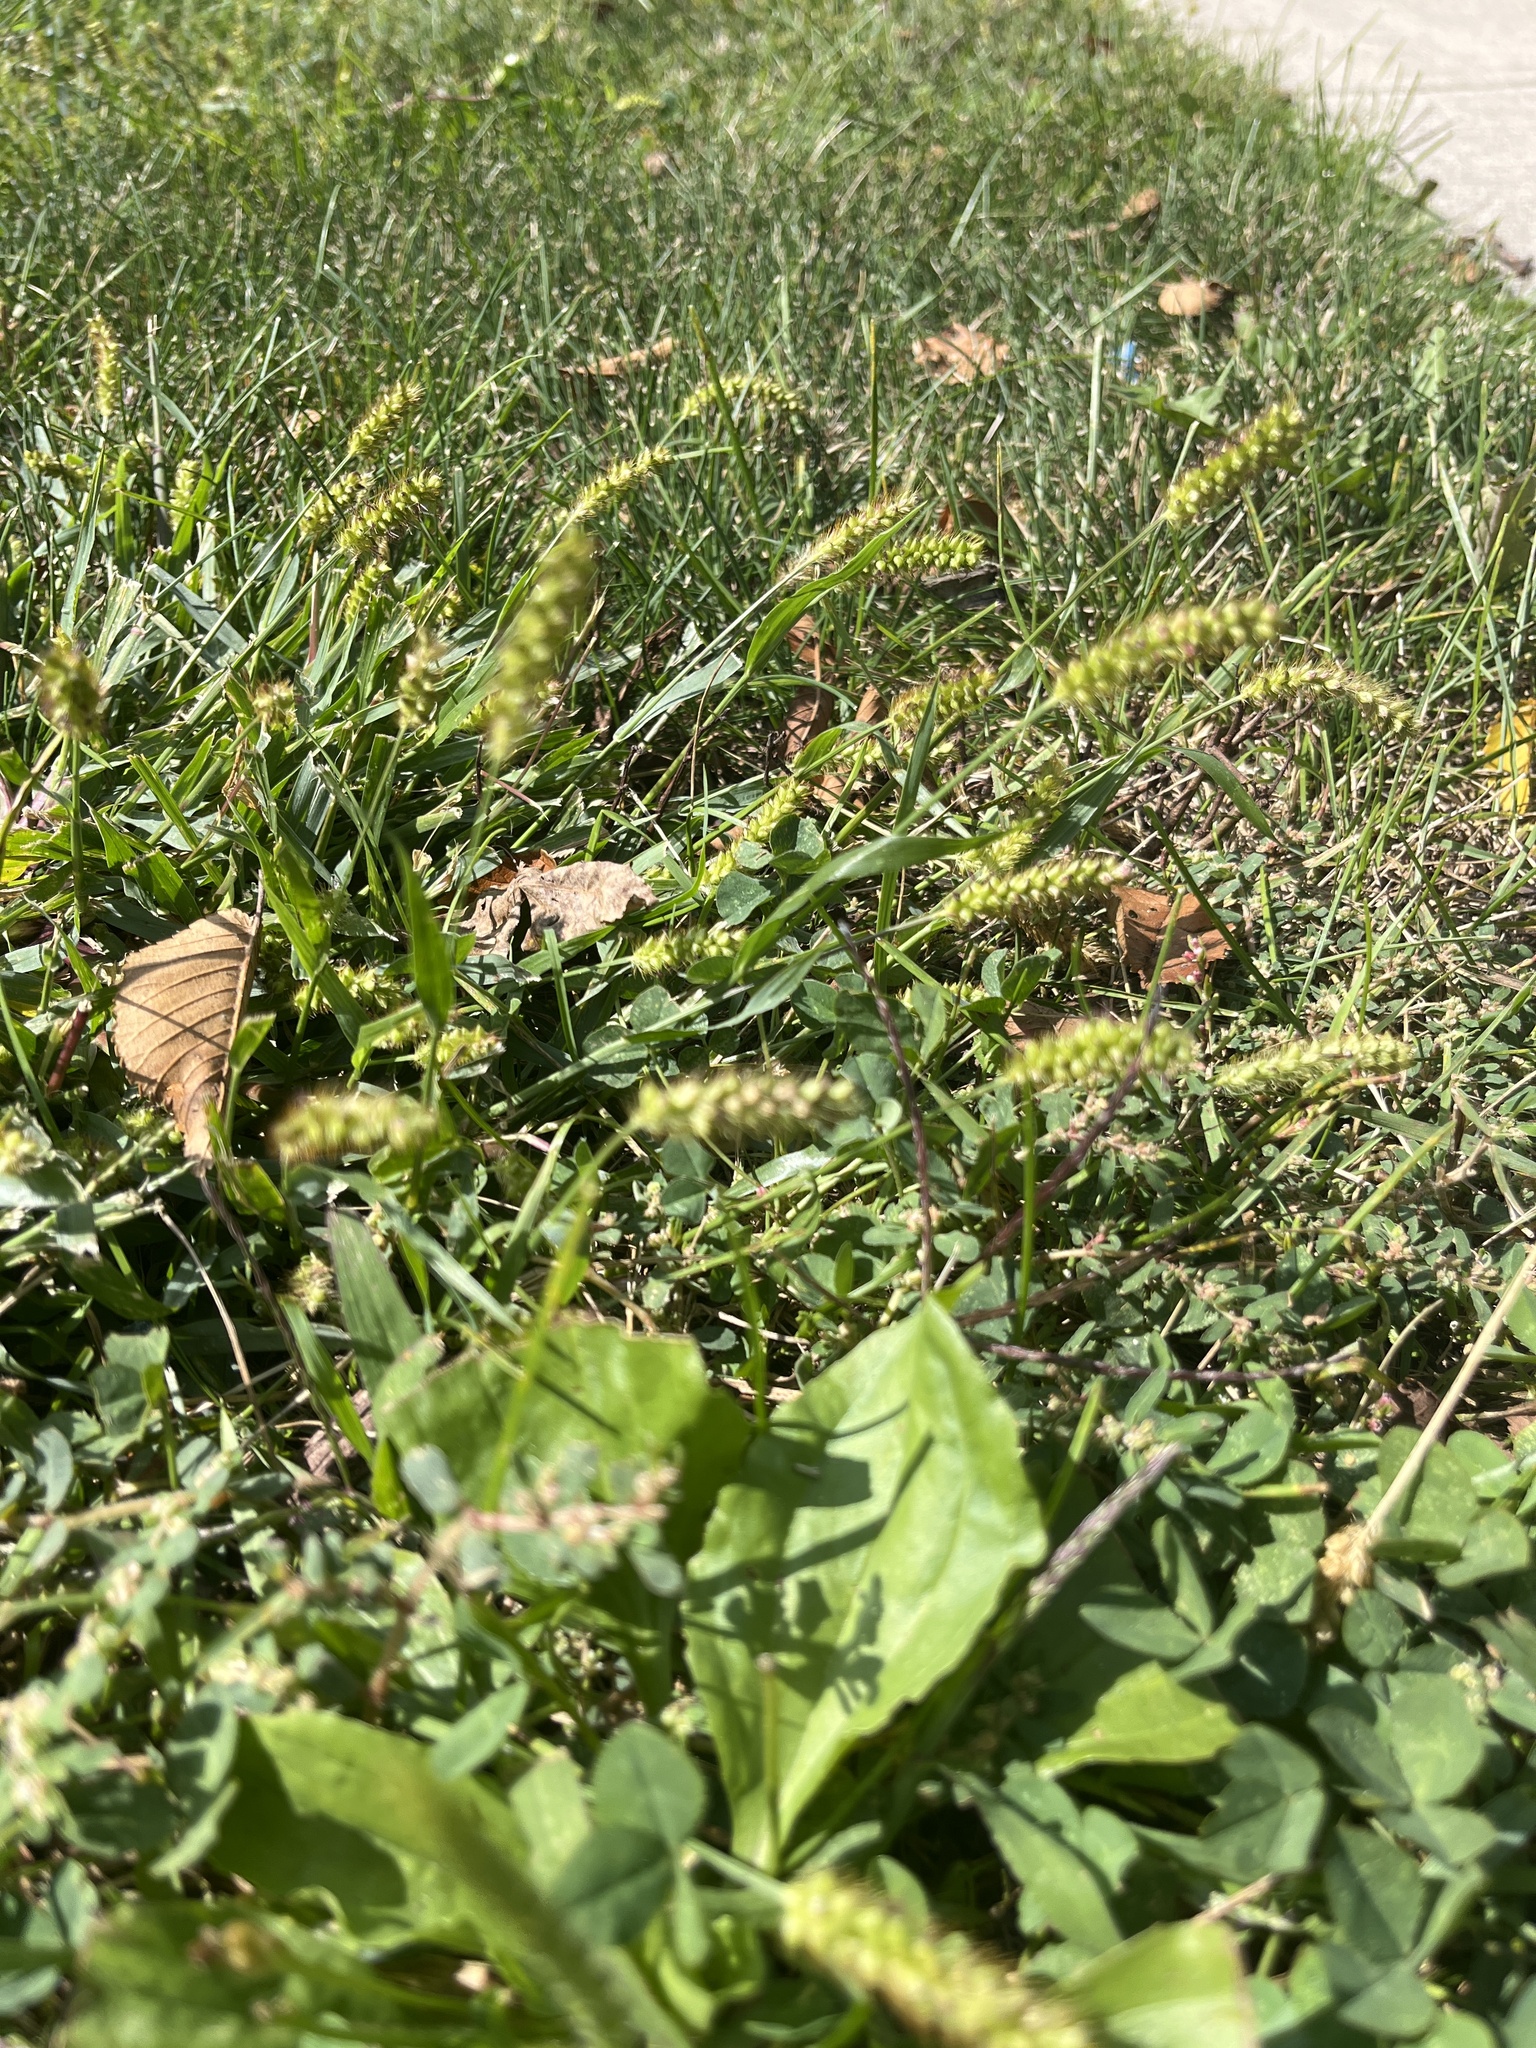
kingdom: Plantae
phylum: Tracheophyta
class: Liliopsida
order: Poales
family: Poaceae
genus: Setaria
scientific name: Setaria pumila
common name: Yellow bristle-grass
